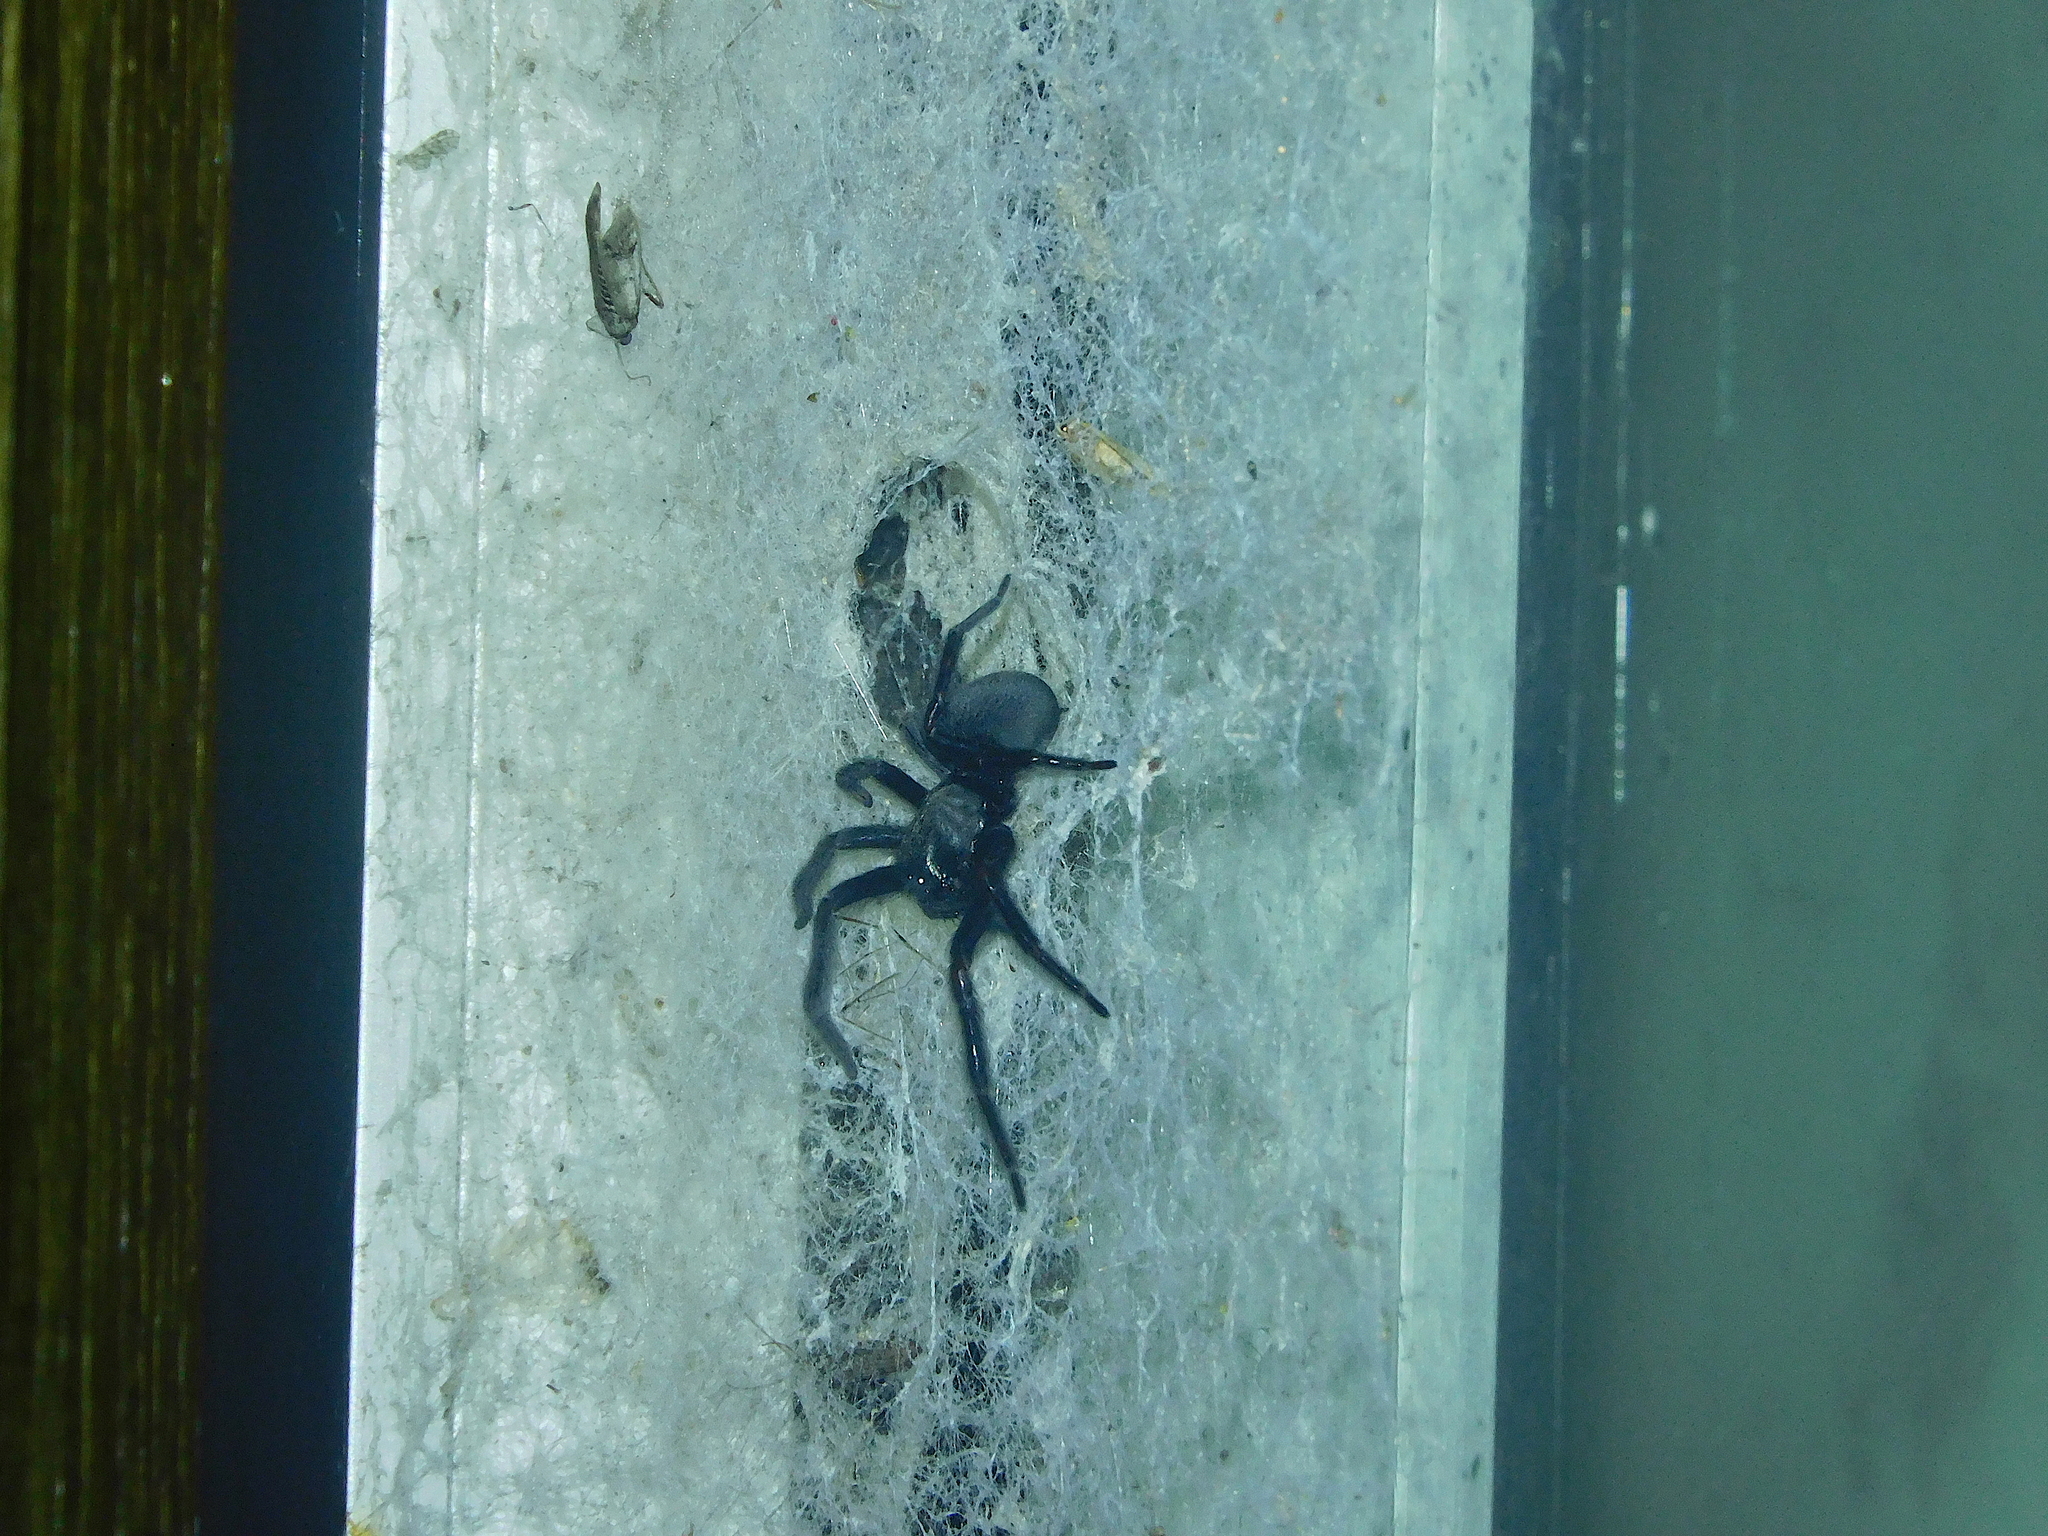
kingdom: Animalia
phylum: Arthropoda
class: Arachnida
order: Araneae
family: Desidae
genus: Badumna
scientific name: Badumna insignis
